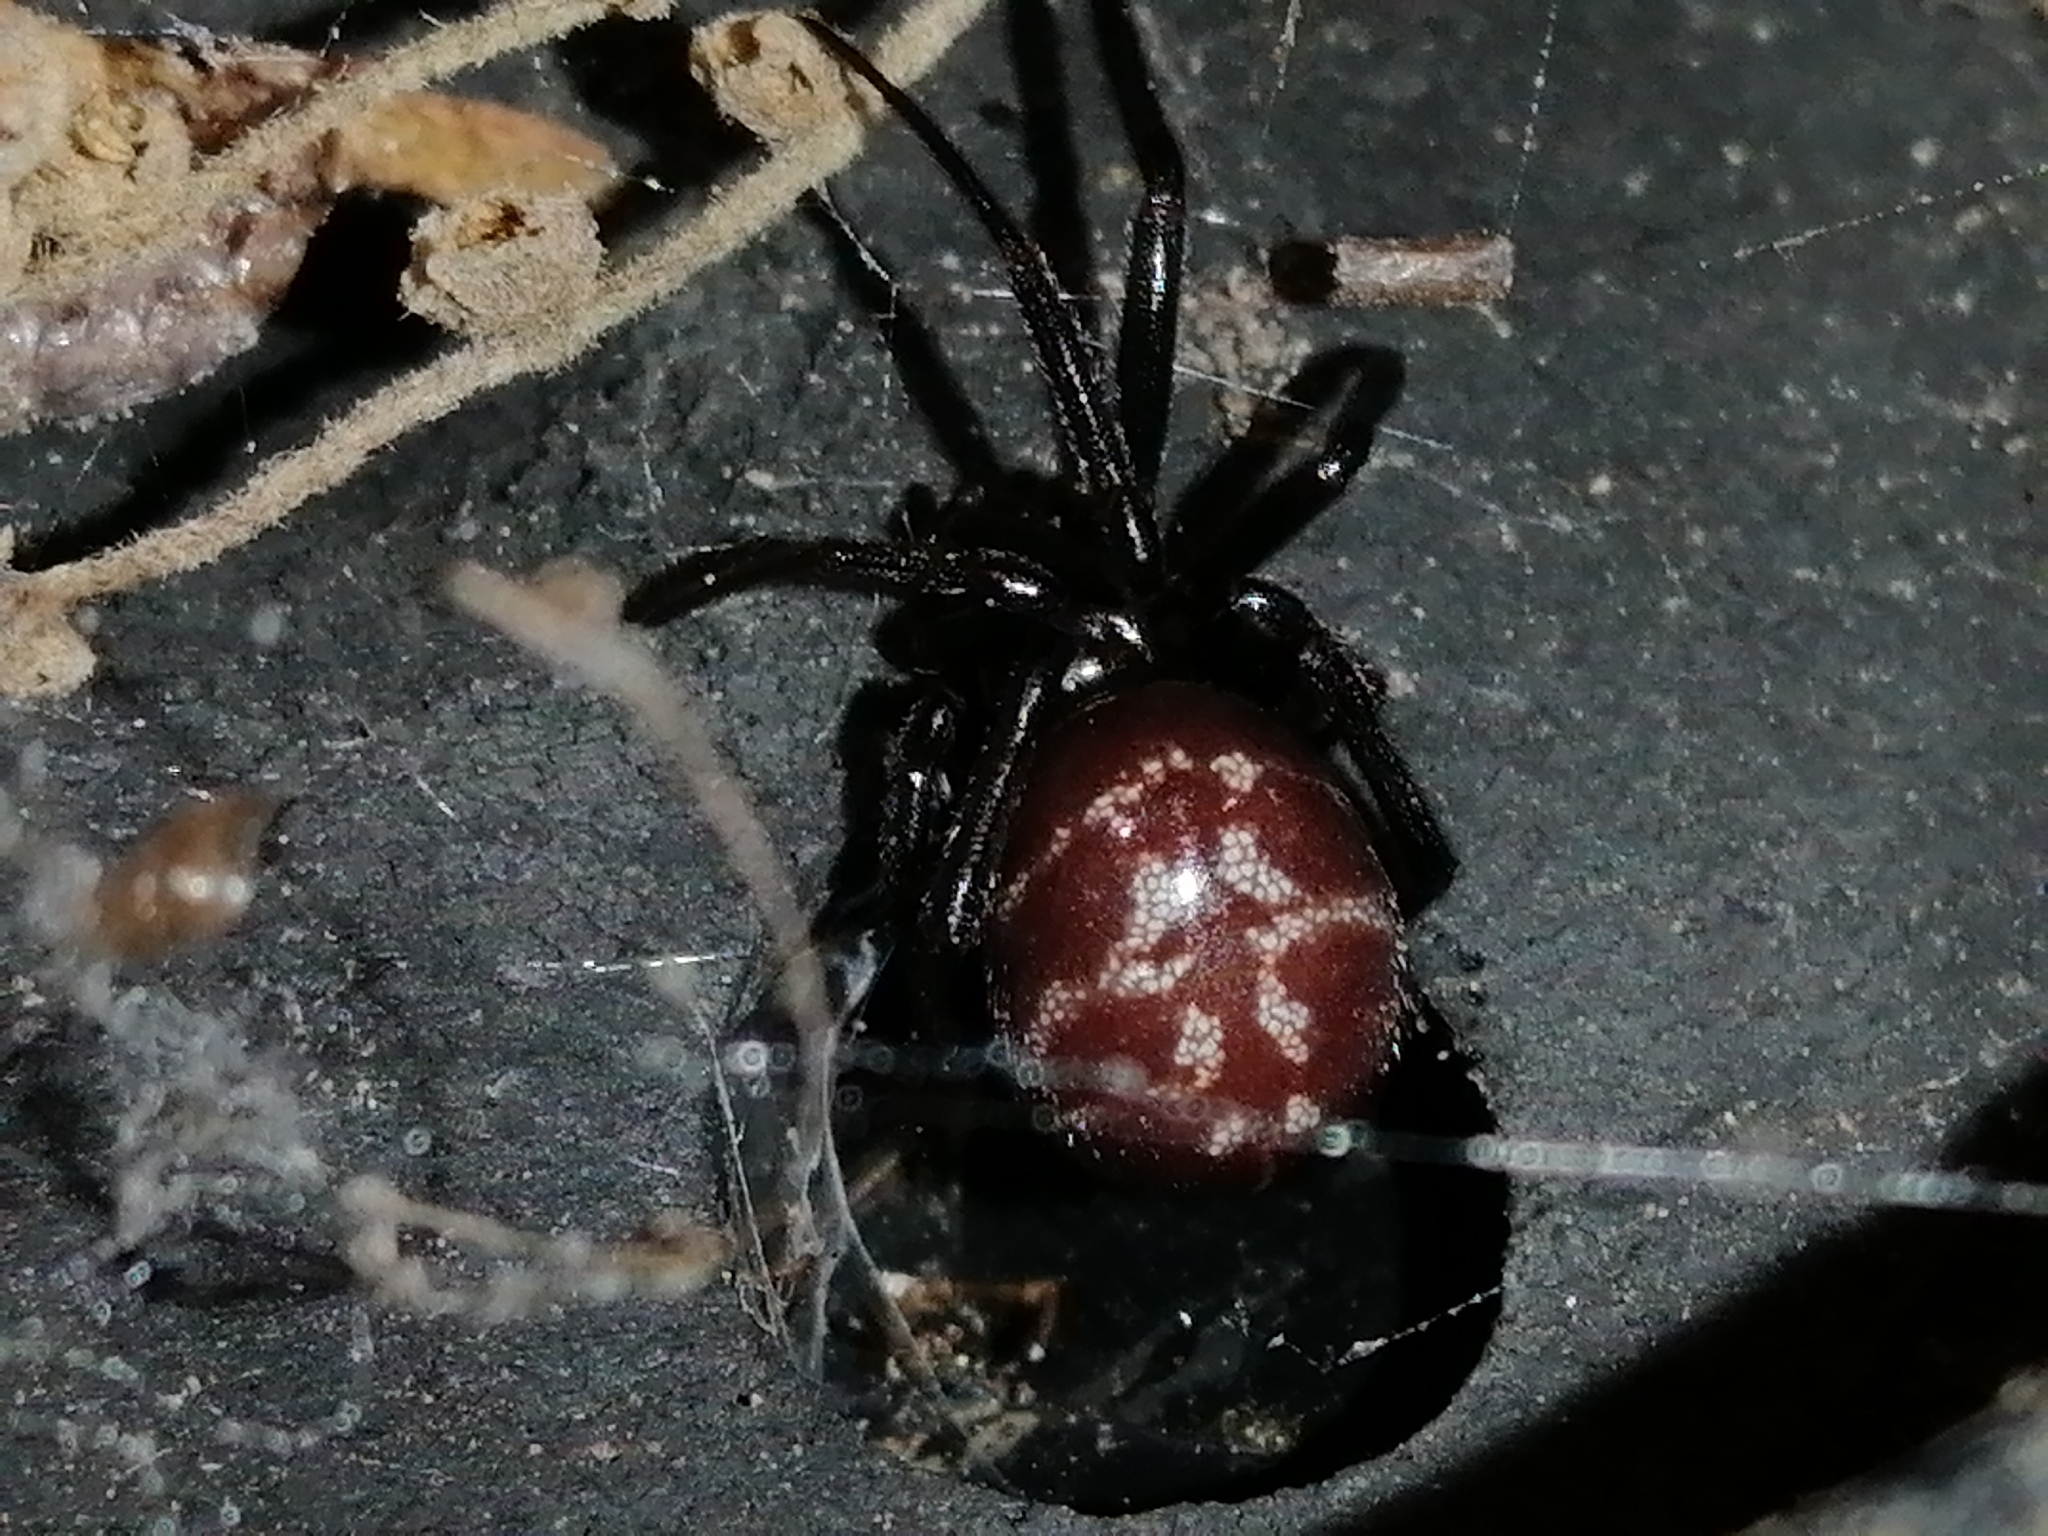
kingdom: Animalia
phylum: Arthropoda
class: Arachnida
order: Araneae
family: Theridiidae
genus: Steatoda
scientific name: Steatoda capensis
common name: Cobweb weaver
